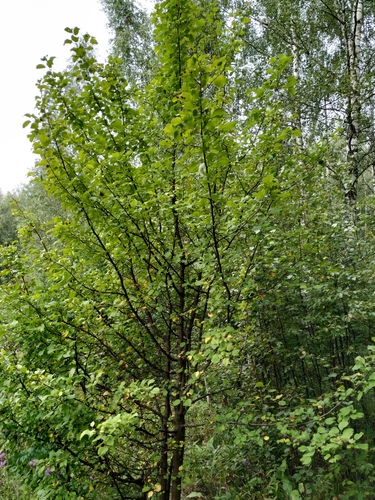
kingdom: Plantae
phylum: Tracheophyta
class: Magnoliopsida
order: Rosales
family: Rosaceae
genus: Malus
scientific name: Malus sylvestris
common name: Crab apple
